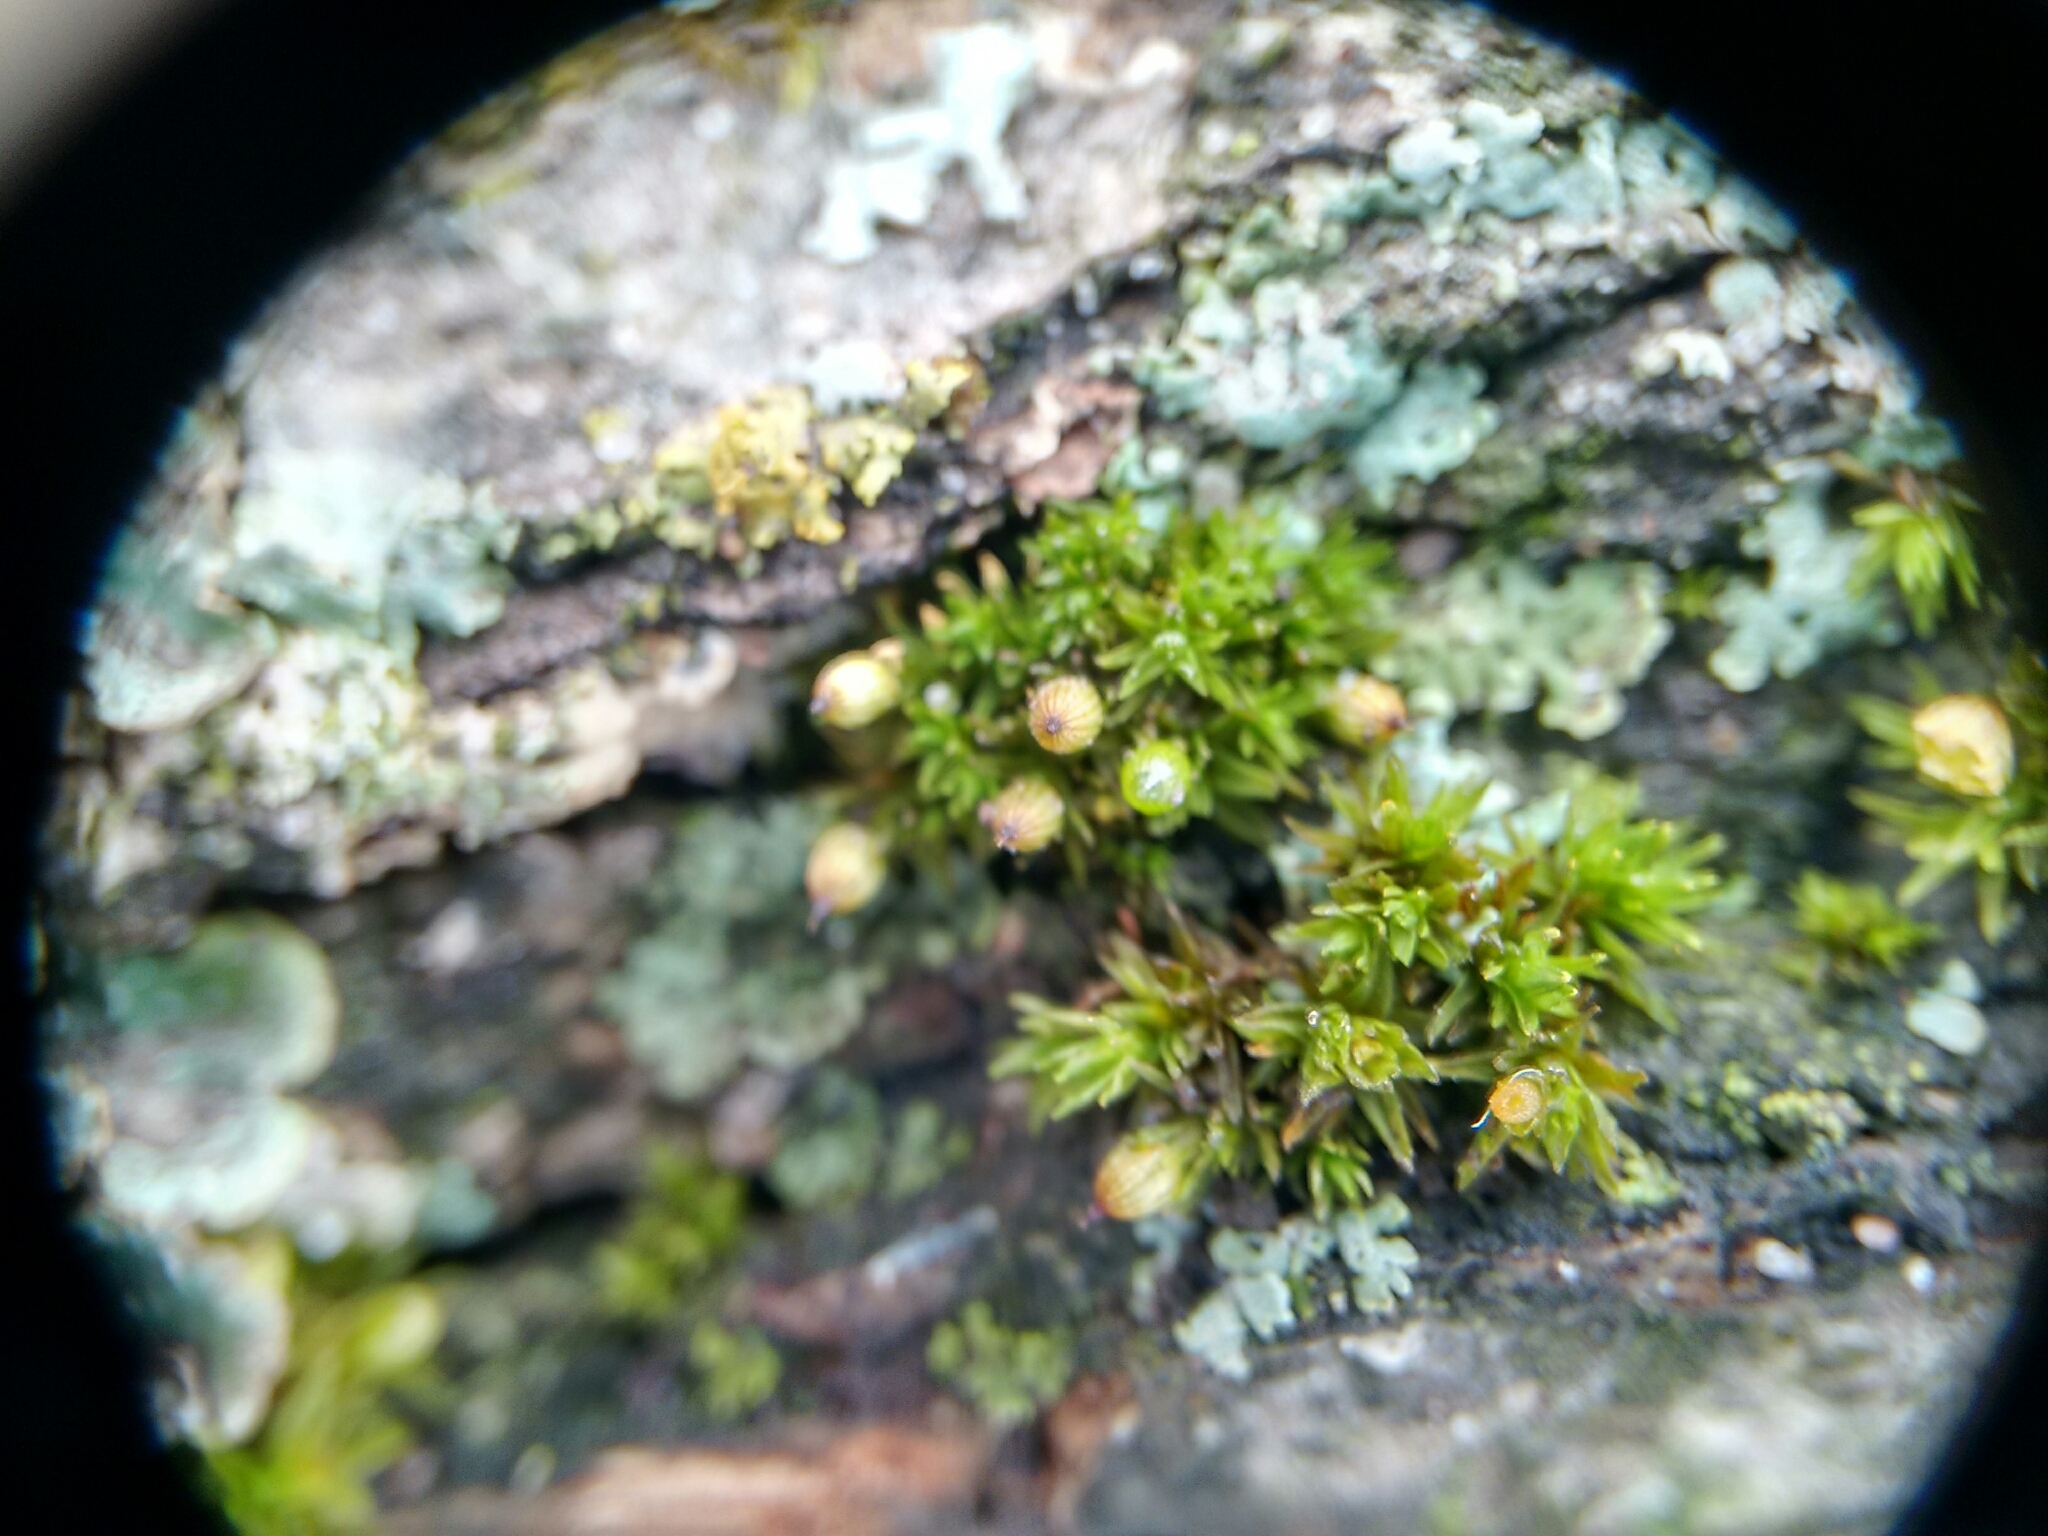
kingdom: Plantae
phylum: Bryophyta
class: Bryopsida
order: Orthotrichales
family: Orthotrichaceae
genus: Orthotrichum
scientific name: Orthotrichum stellatum
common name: Starlike bristle moss
